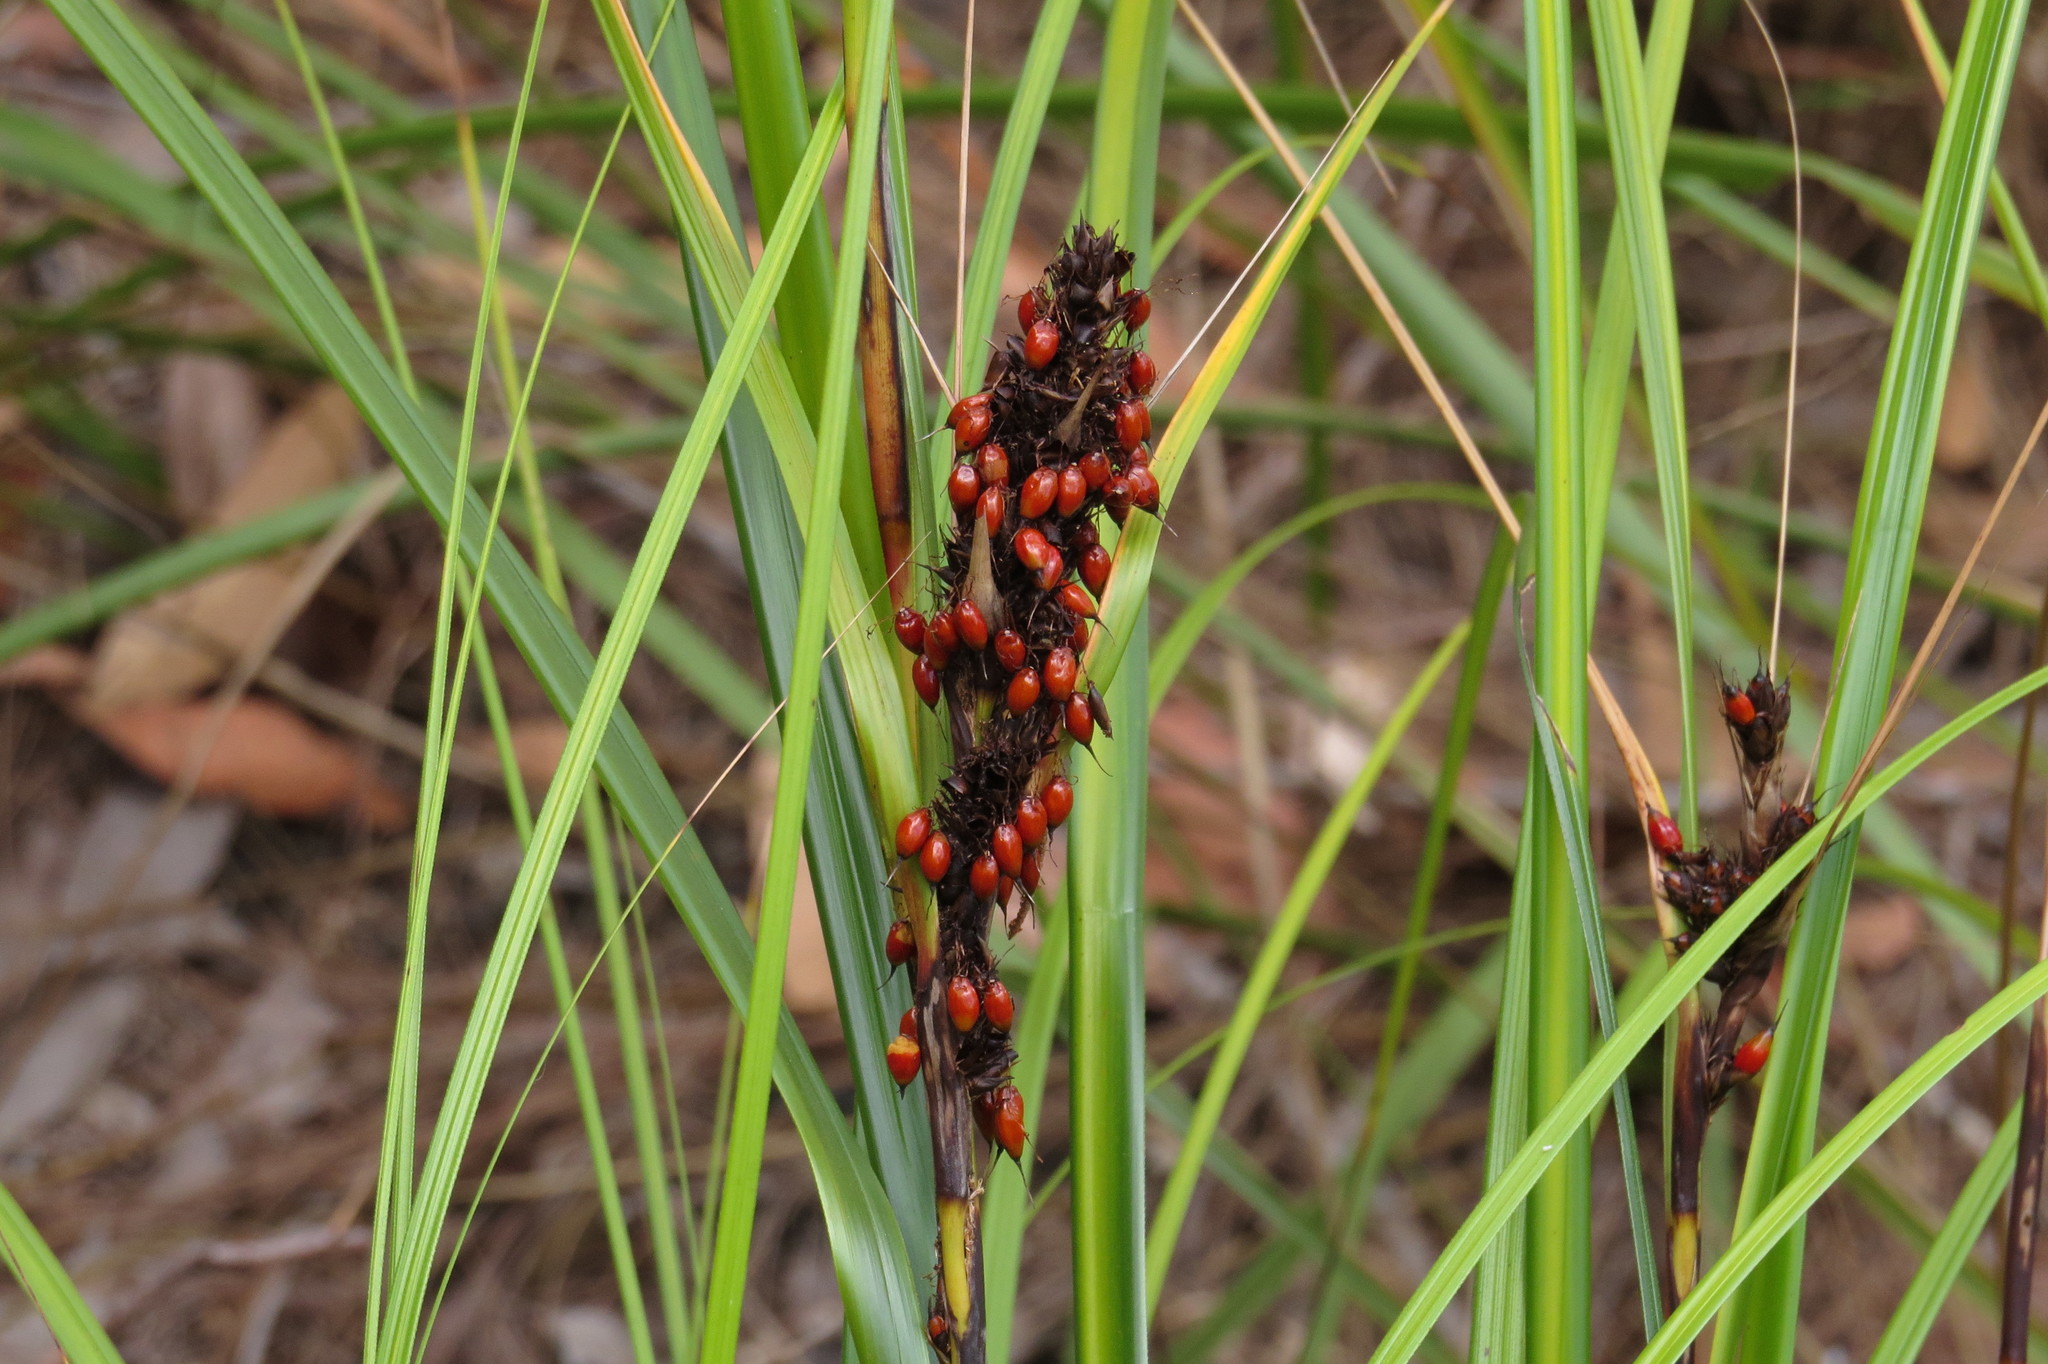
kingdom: Plantae
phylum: Tracheophyta
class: Liliopsida
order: Poales
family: Cyperaceae
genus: Gahnia
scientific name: Gahnia aspera
